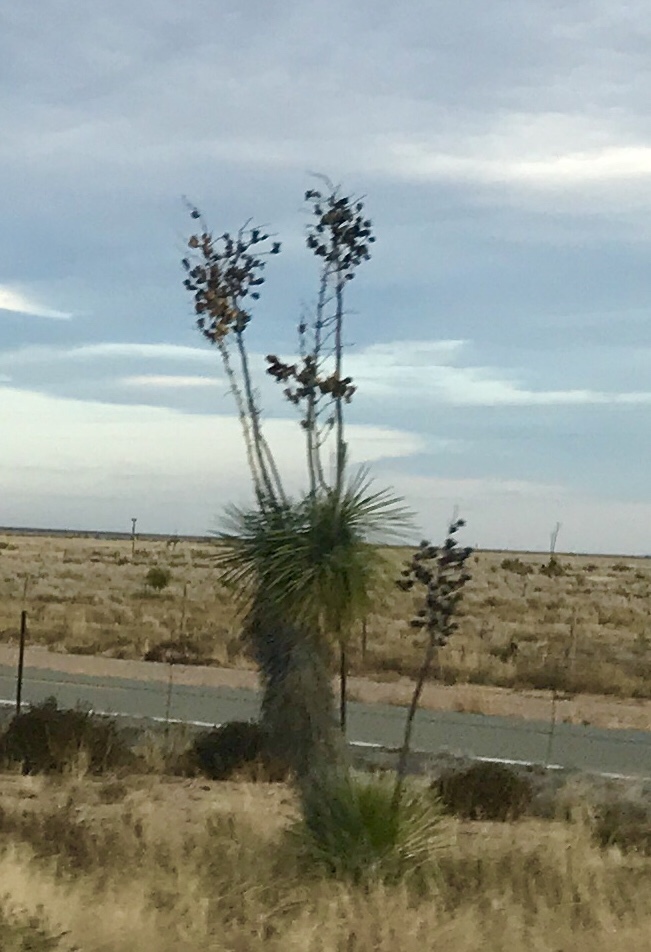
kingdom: Plantae
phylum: Tracheophyta
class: Liliopsida
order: Asparagales
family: Asparagaceae
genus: Yucca
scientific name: Yucca elata
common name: Palmella
